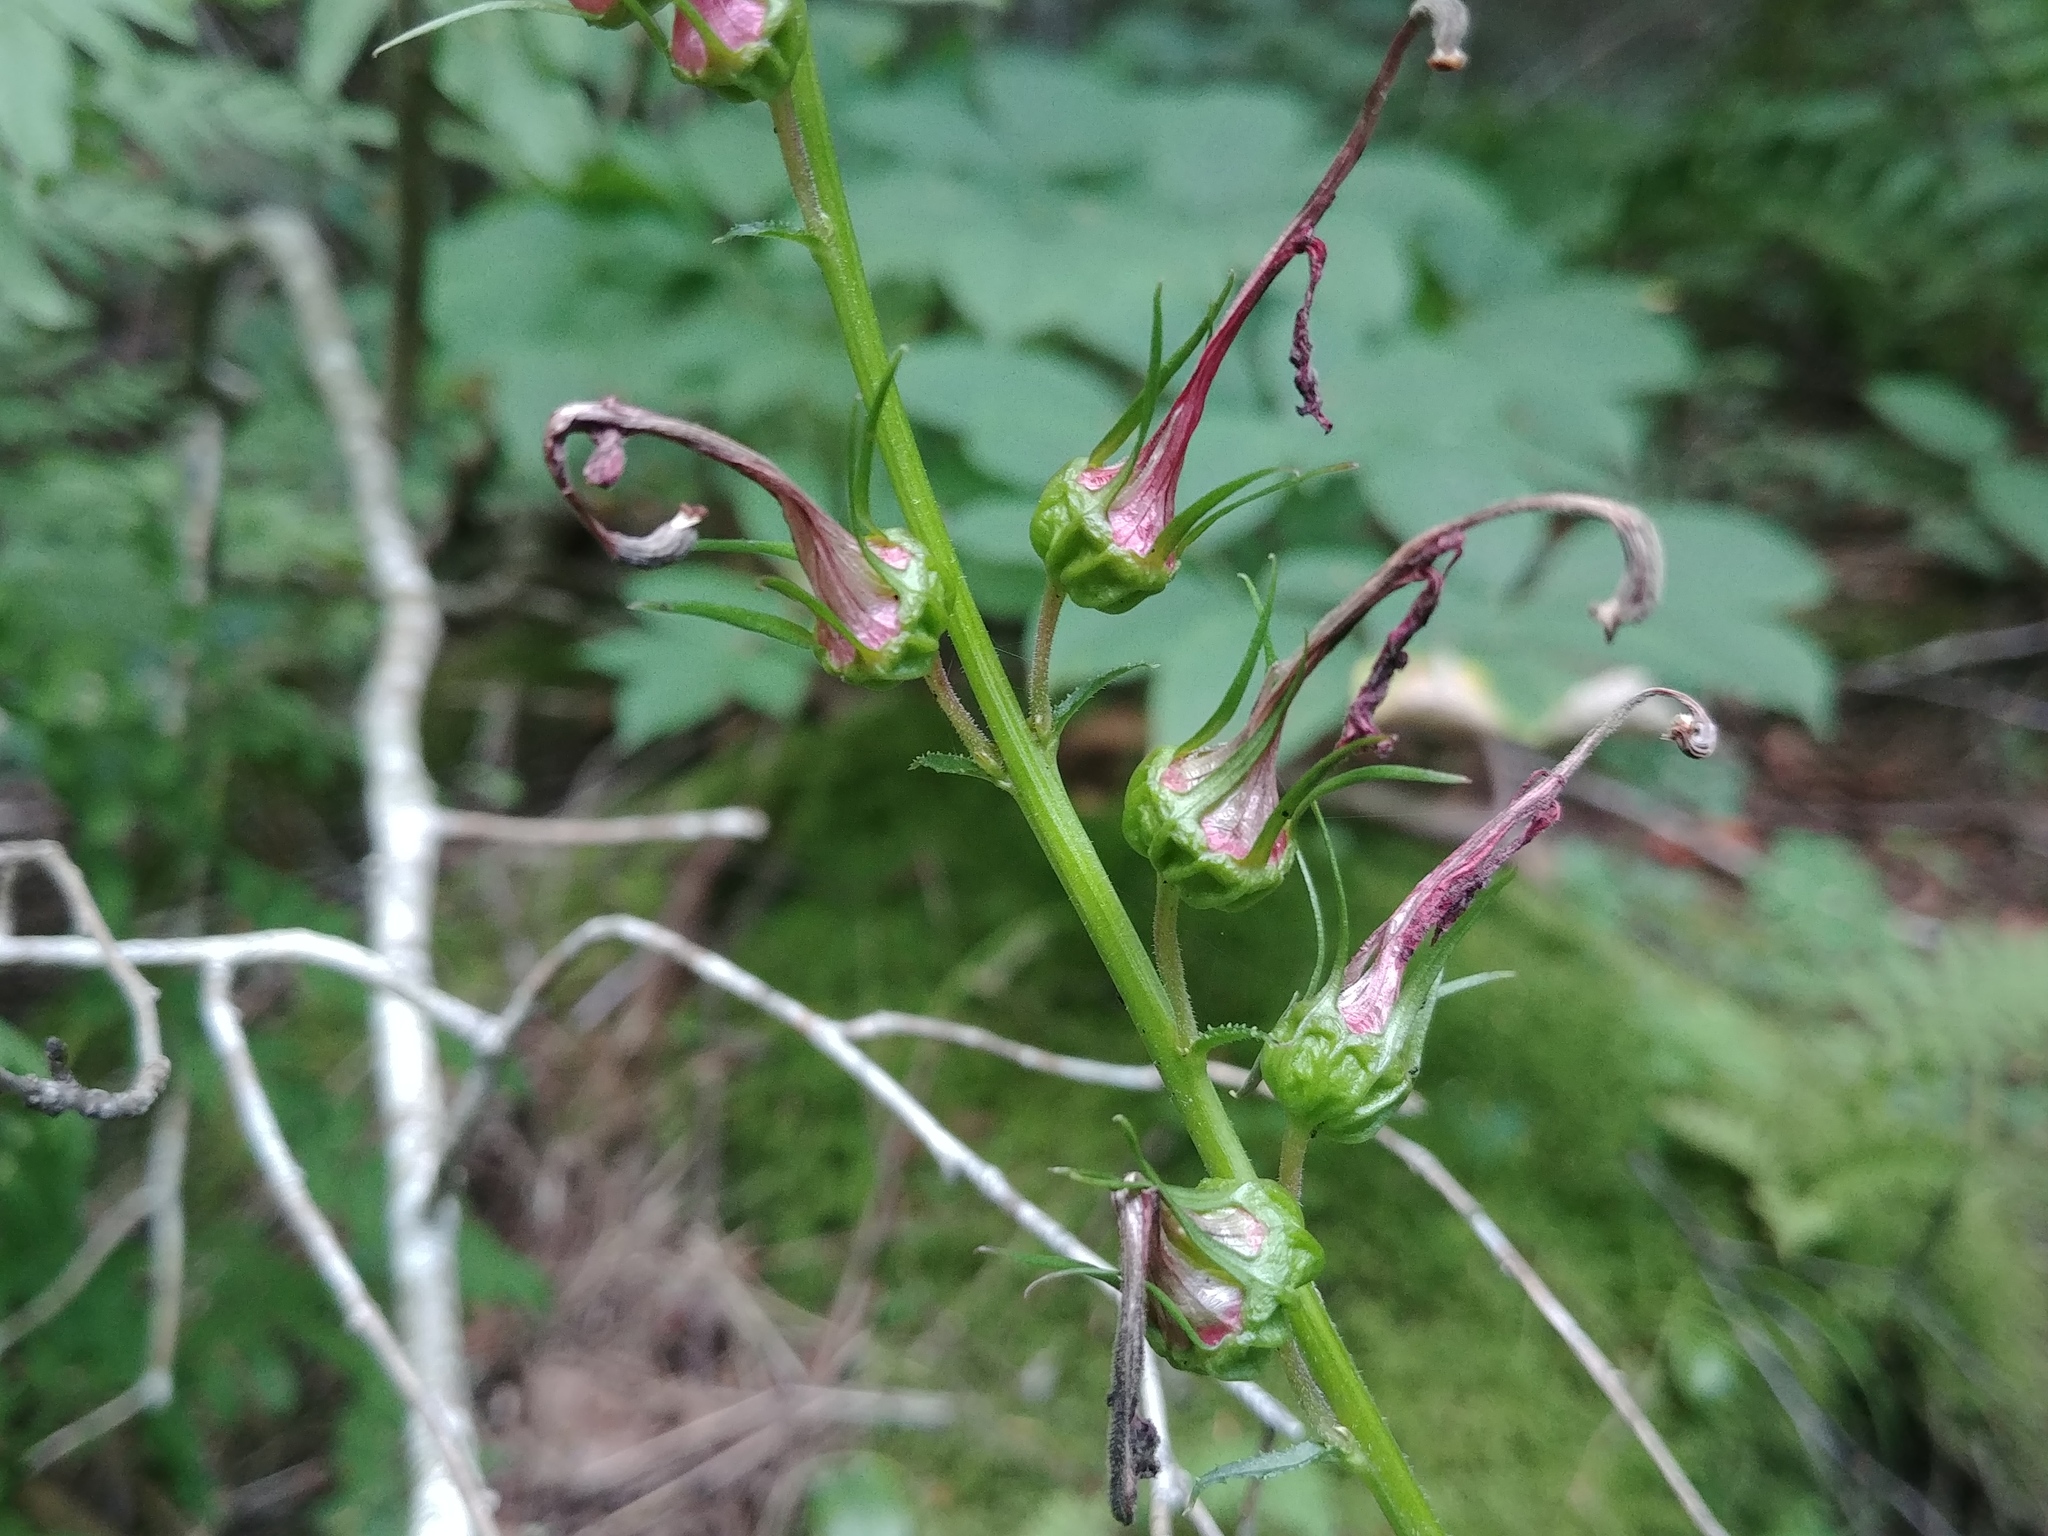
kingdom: Plantae
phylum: Tracheophyta
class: Magnoliopsida
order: Asterales
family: Campanulaceae
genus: Lobelia
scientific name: Lobelia cardinalis
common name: Cardinal flower
